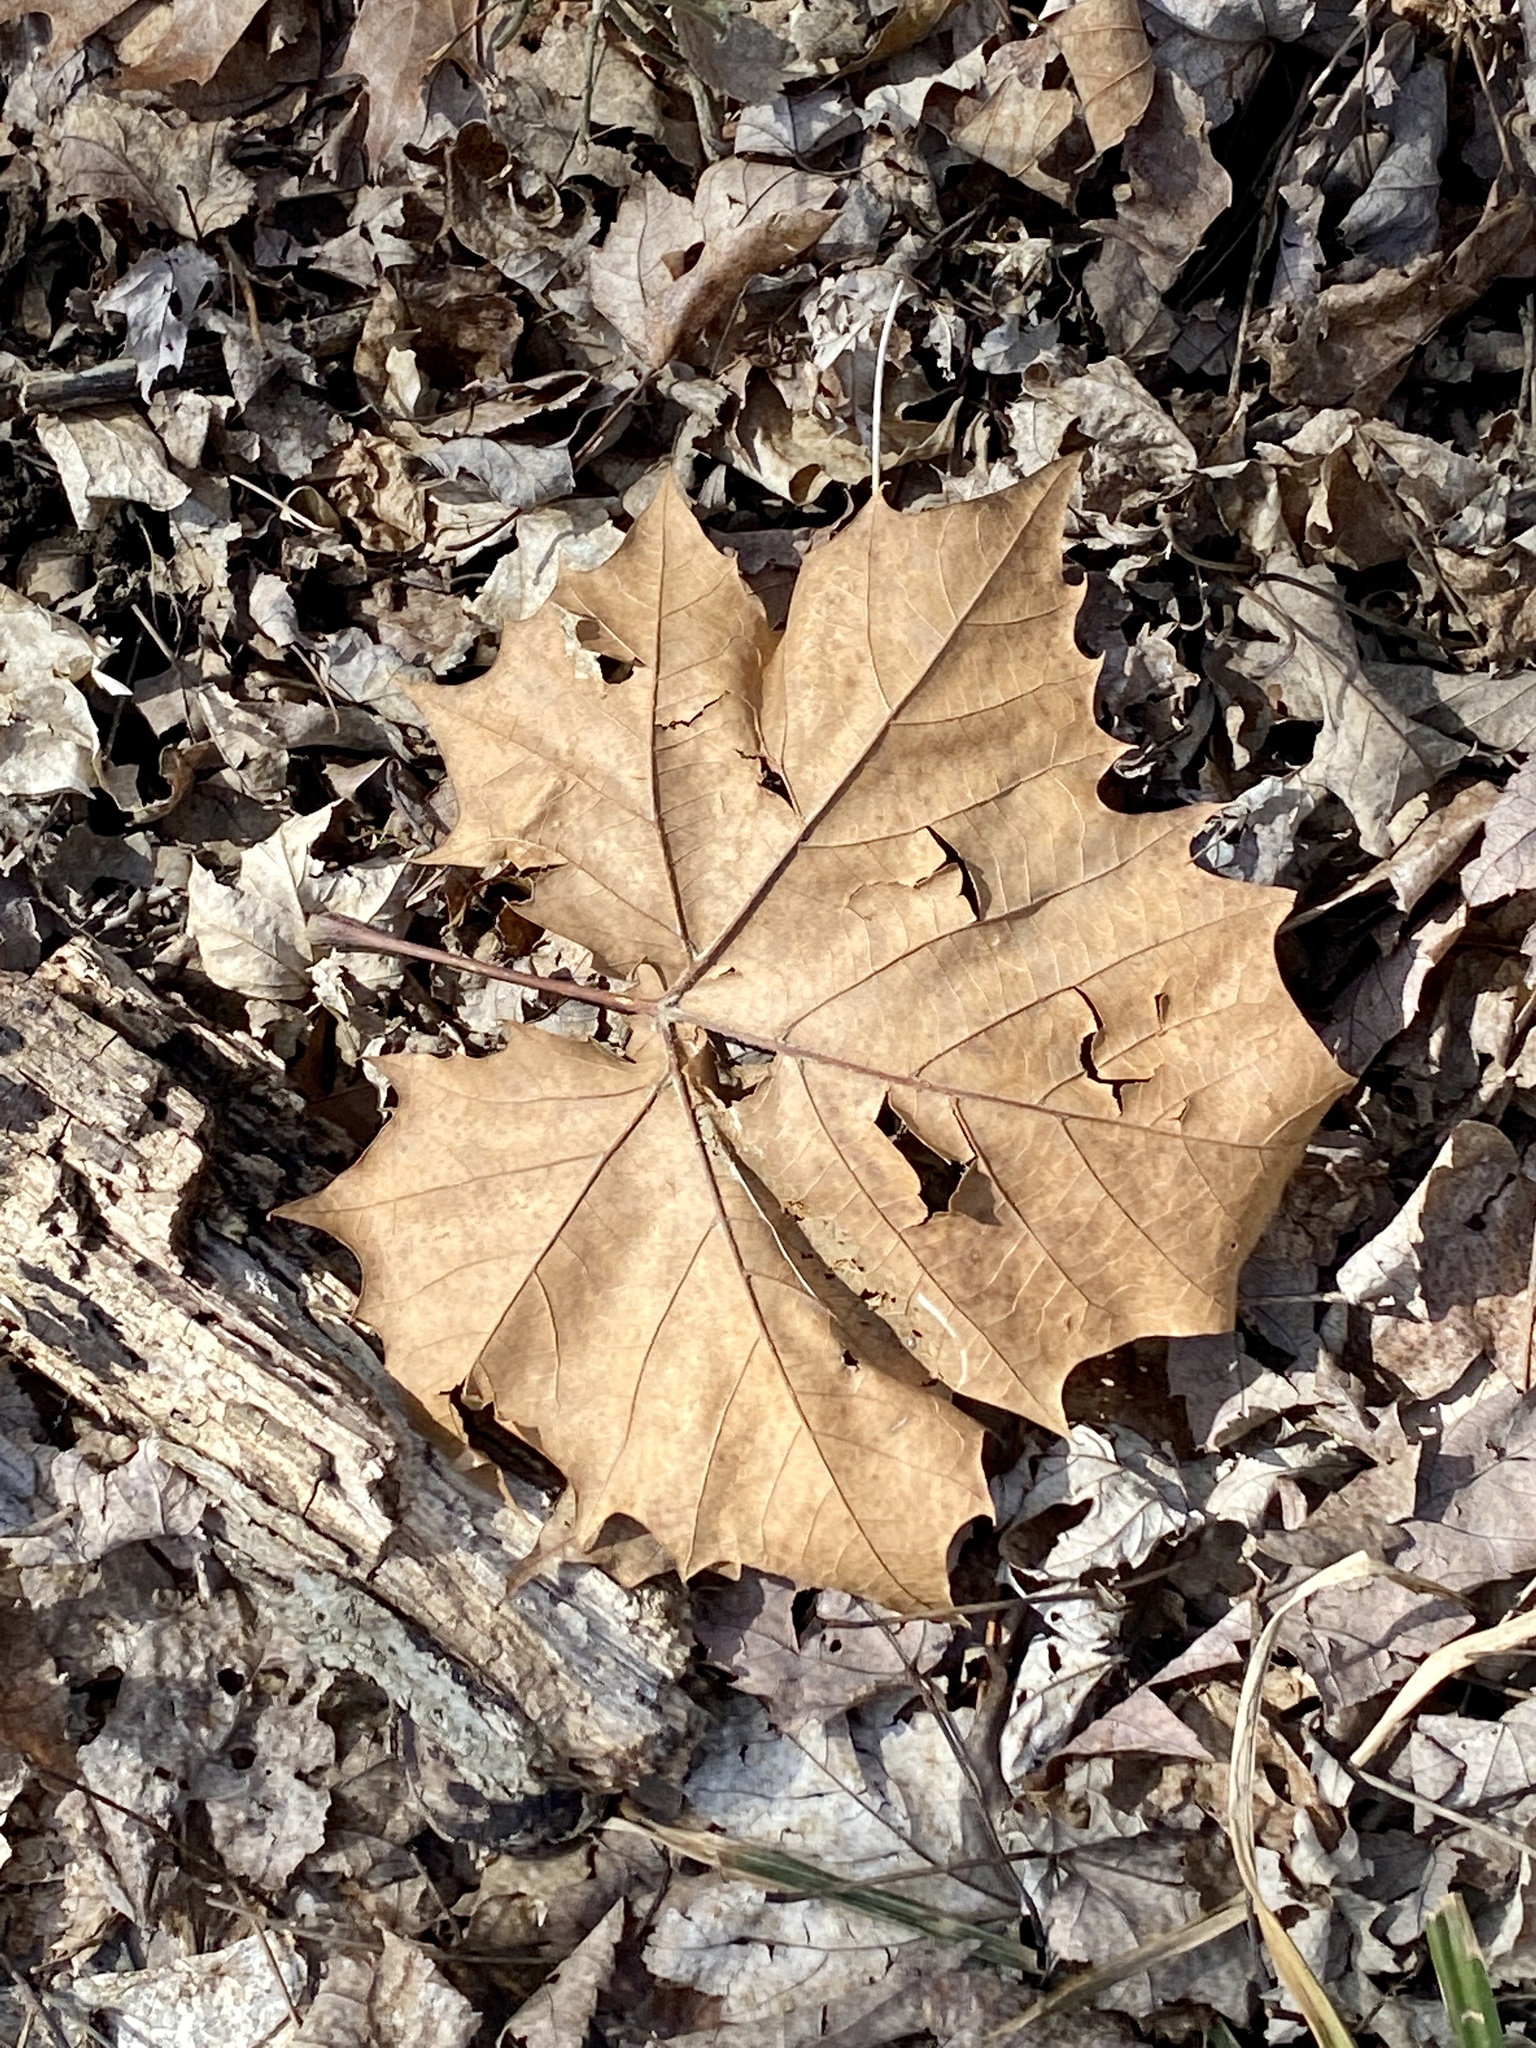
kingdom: Plantae
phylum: Tracheophyta
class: Magnoliopsida
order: Proteales
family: Platanaceae
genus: Platanus
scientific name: Platanus occidentalis
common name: American sycamore
